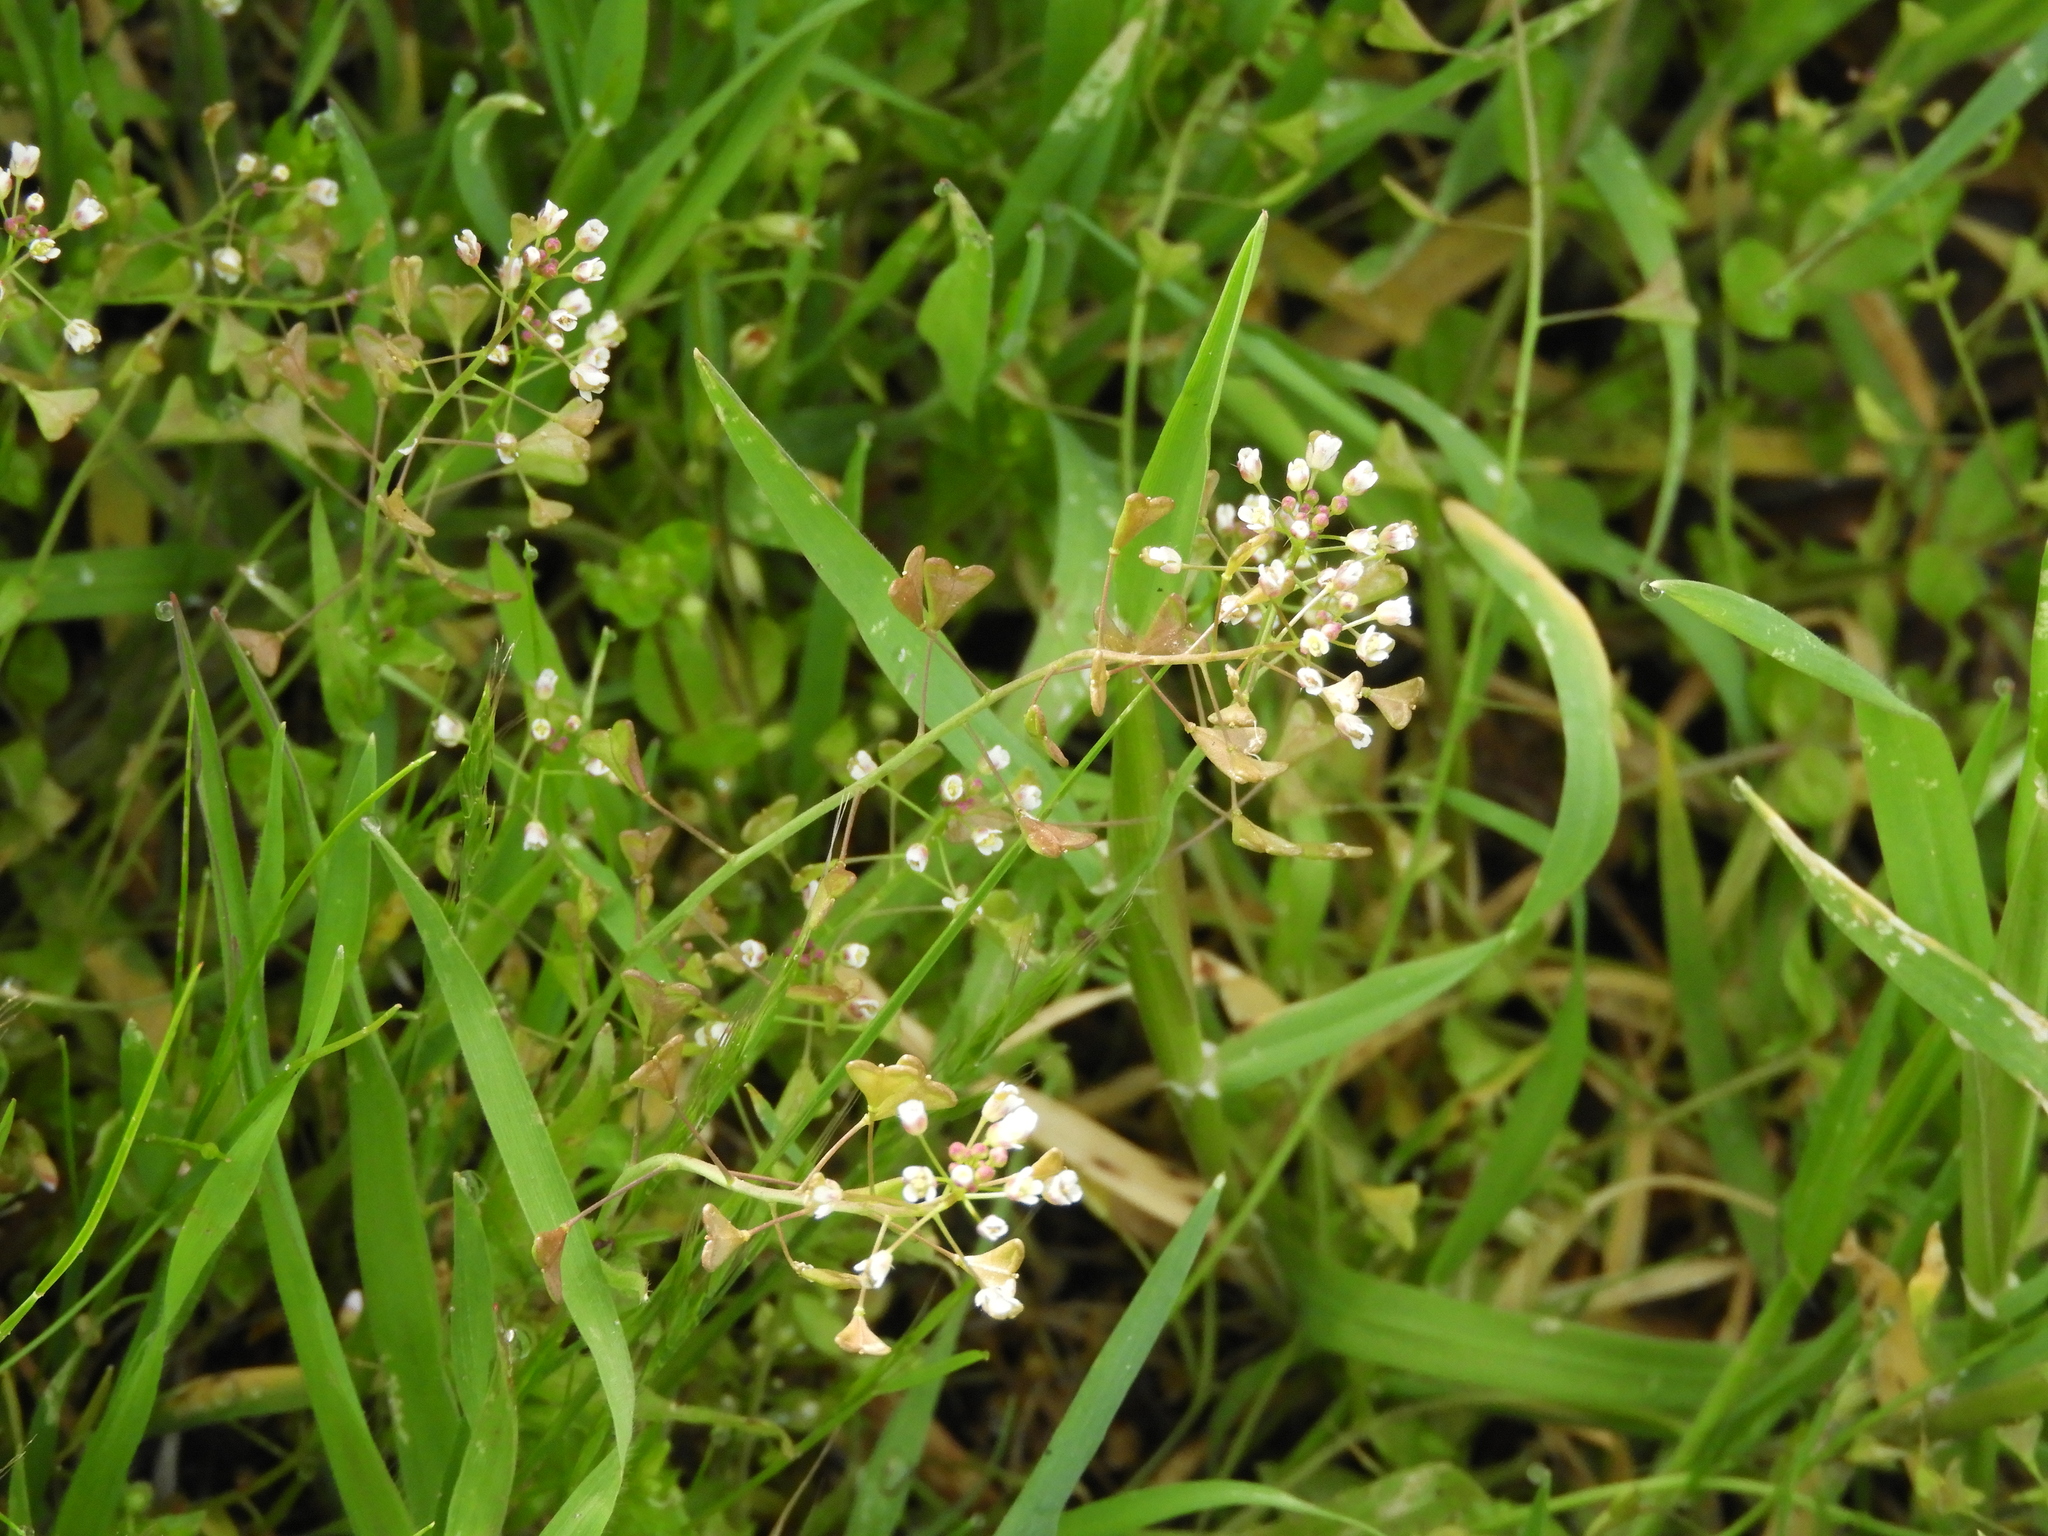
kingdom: Plantae
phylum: Tracheophyta
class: Magnoliopsida
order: Brassicales
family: Brassicaceae
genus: Capsella
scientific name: Capsella bursa-pastoris
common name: Shepherd's purse
